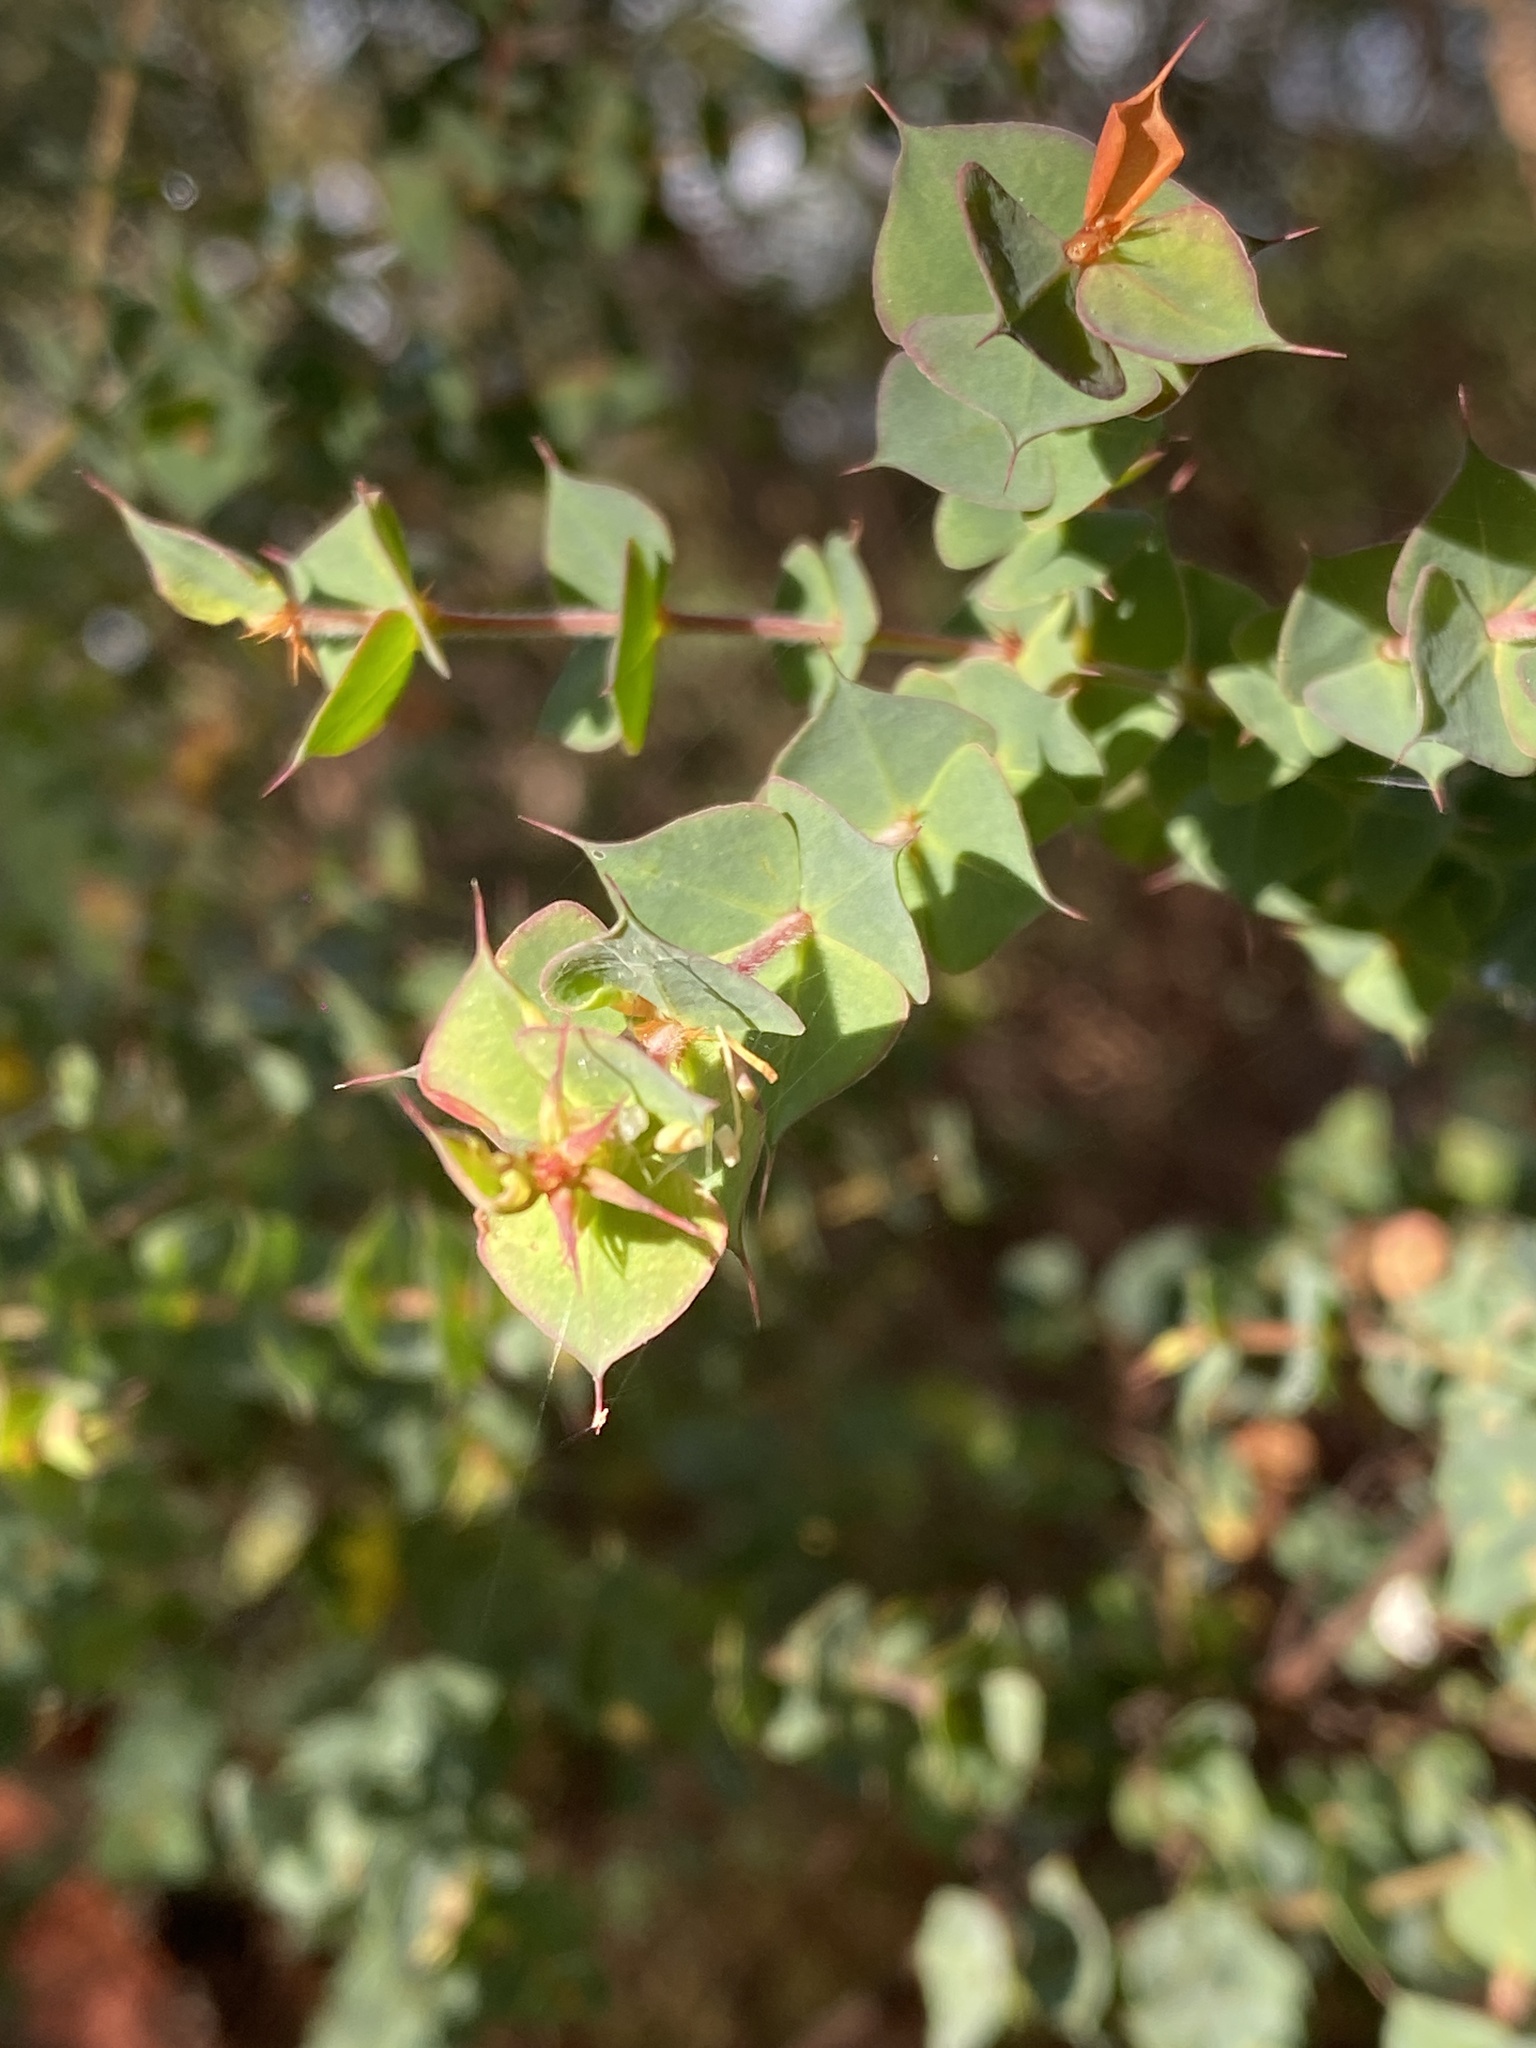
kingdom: Plantae
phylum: Tracheophyta
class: Magnoliopsida
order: Fabales
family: Fabaceae
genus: Pultenaea
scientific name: Pultenaea spinosa
